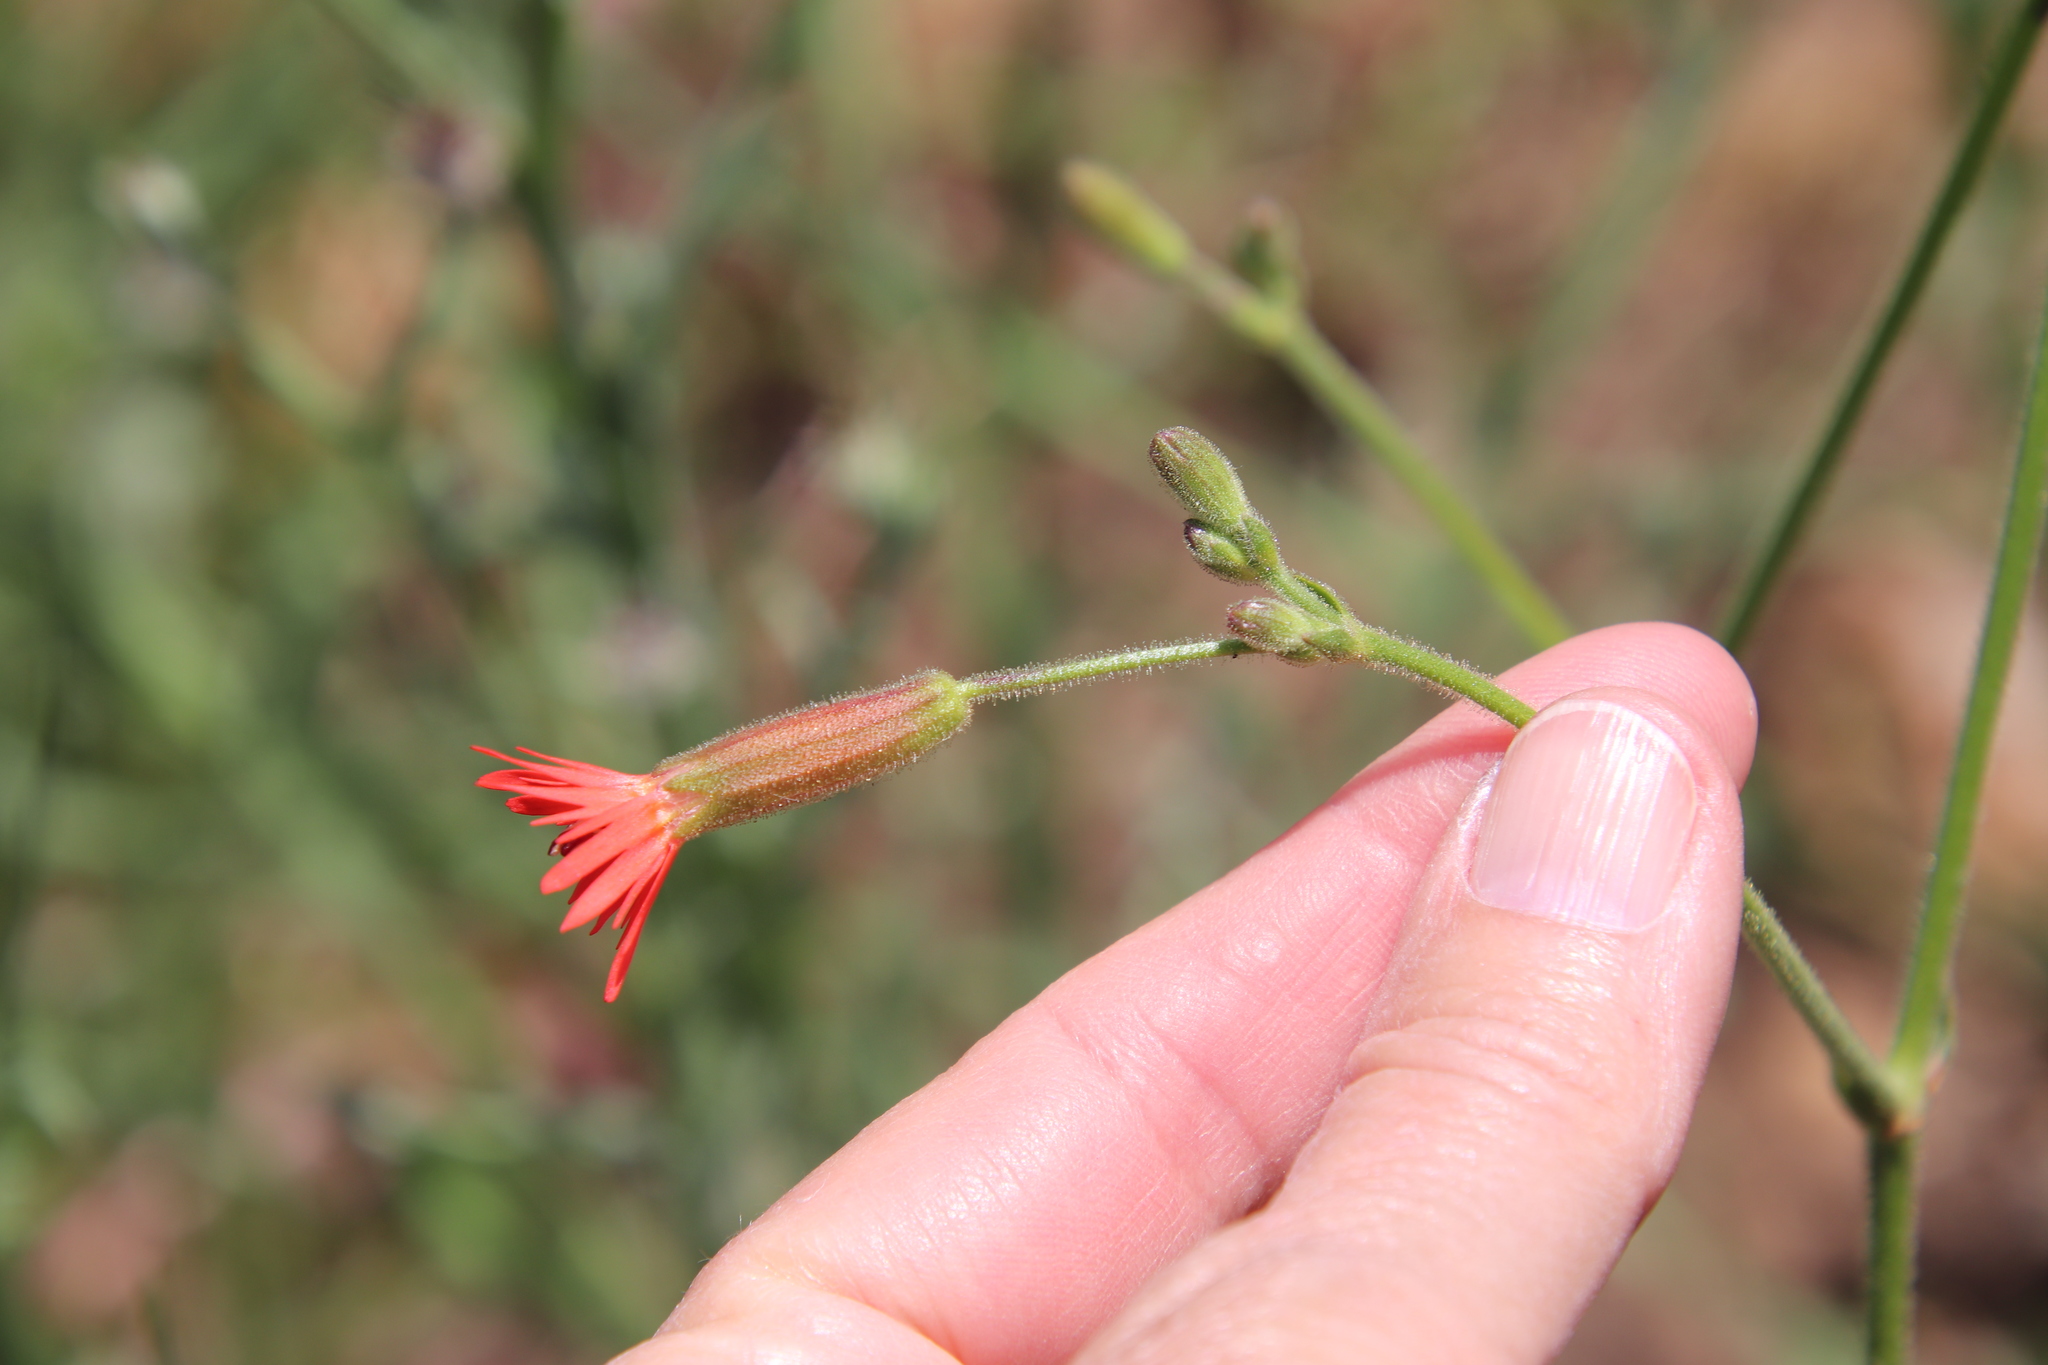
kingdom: Plantae
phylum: Tracheophyta
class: Magnoliopsida
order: Caryophyllales
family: Caryophyllaceae
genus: Silene
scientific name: Silene laciniata
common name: Indian-pink
